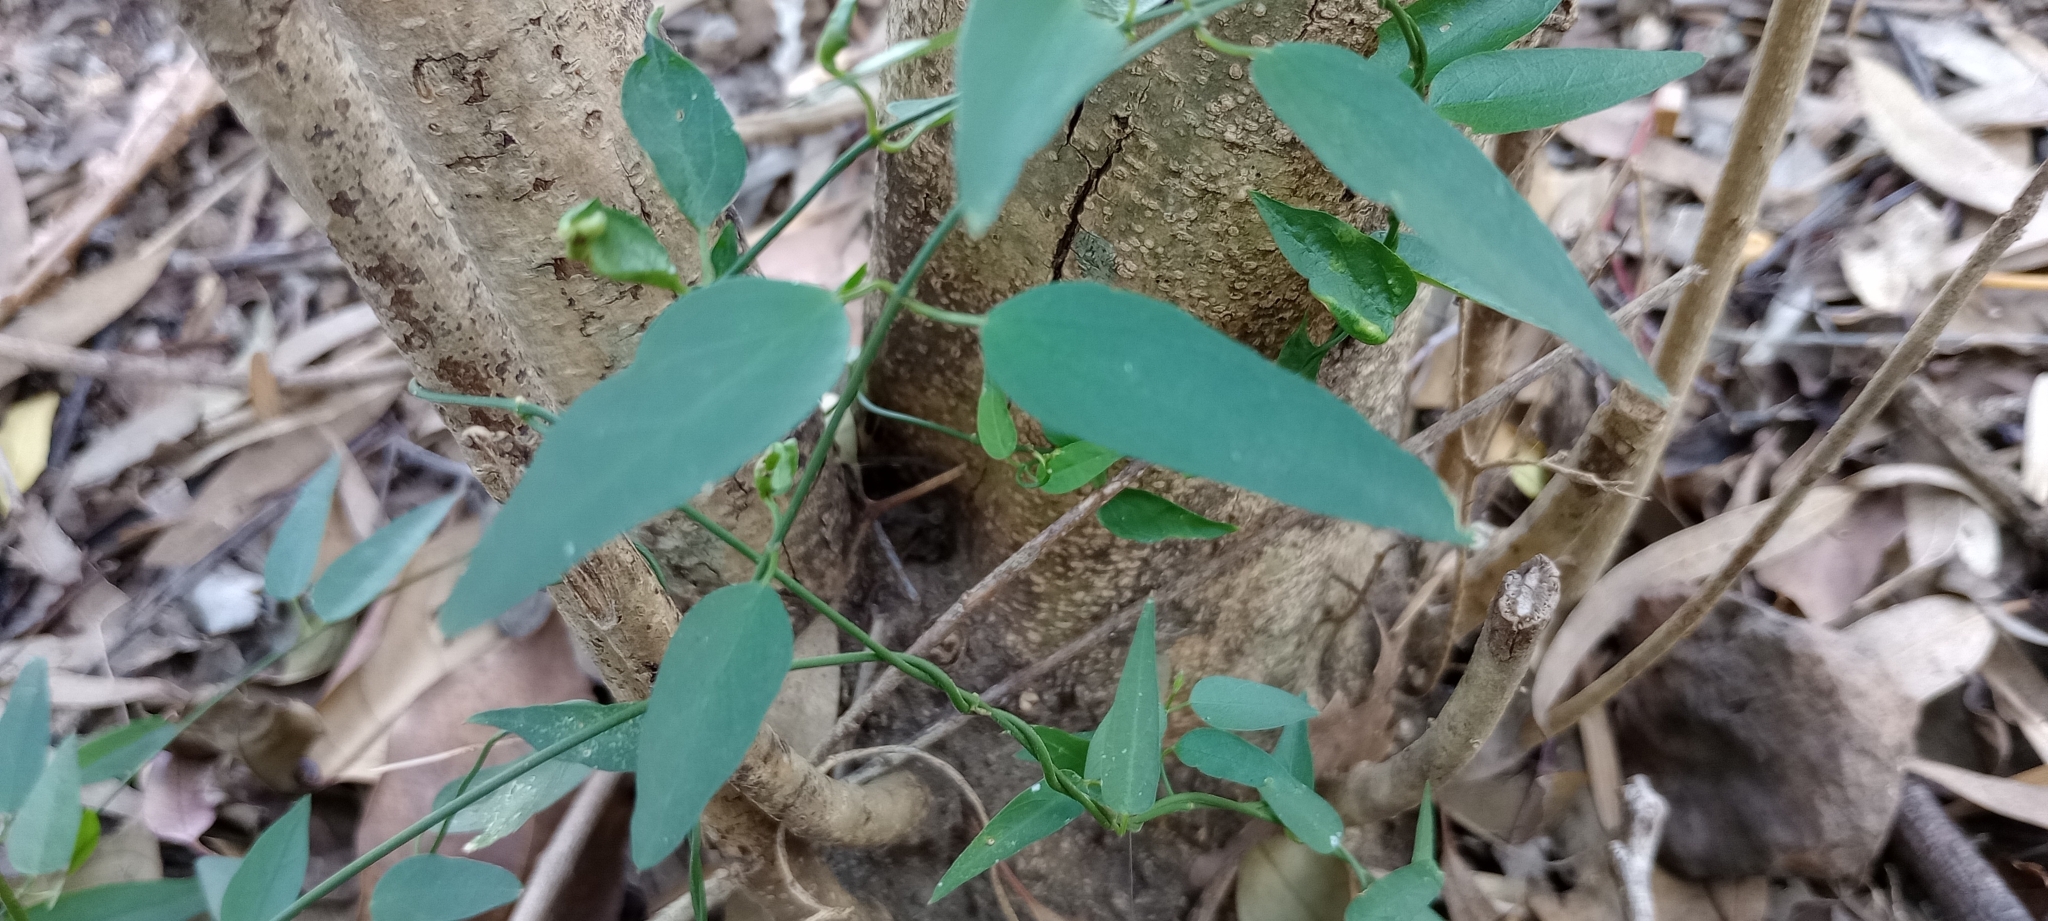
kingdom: Plantae
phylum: Tracheophyta
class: Magnoliopsida
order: Gentianales
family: Apocynaceae
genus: Orthosia
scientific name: Orthosia virgata
